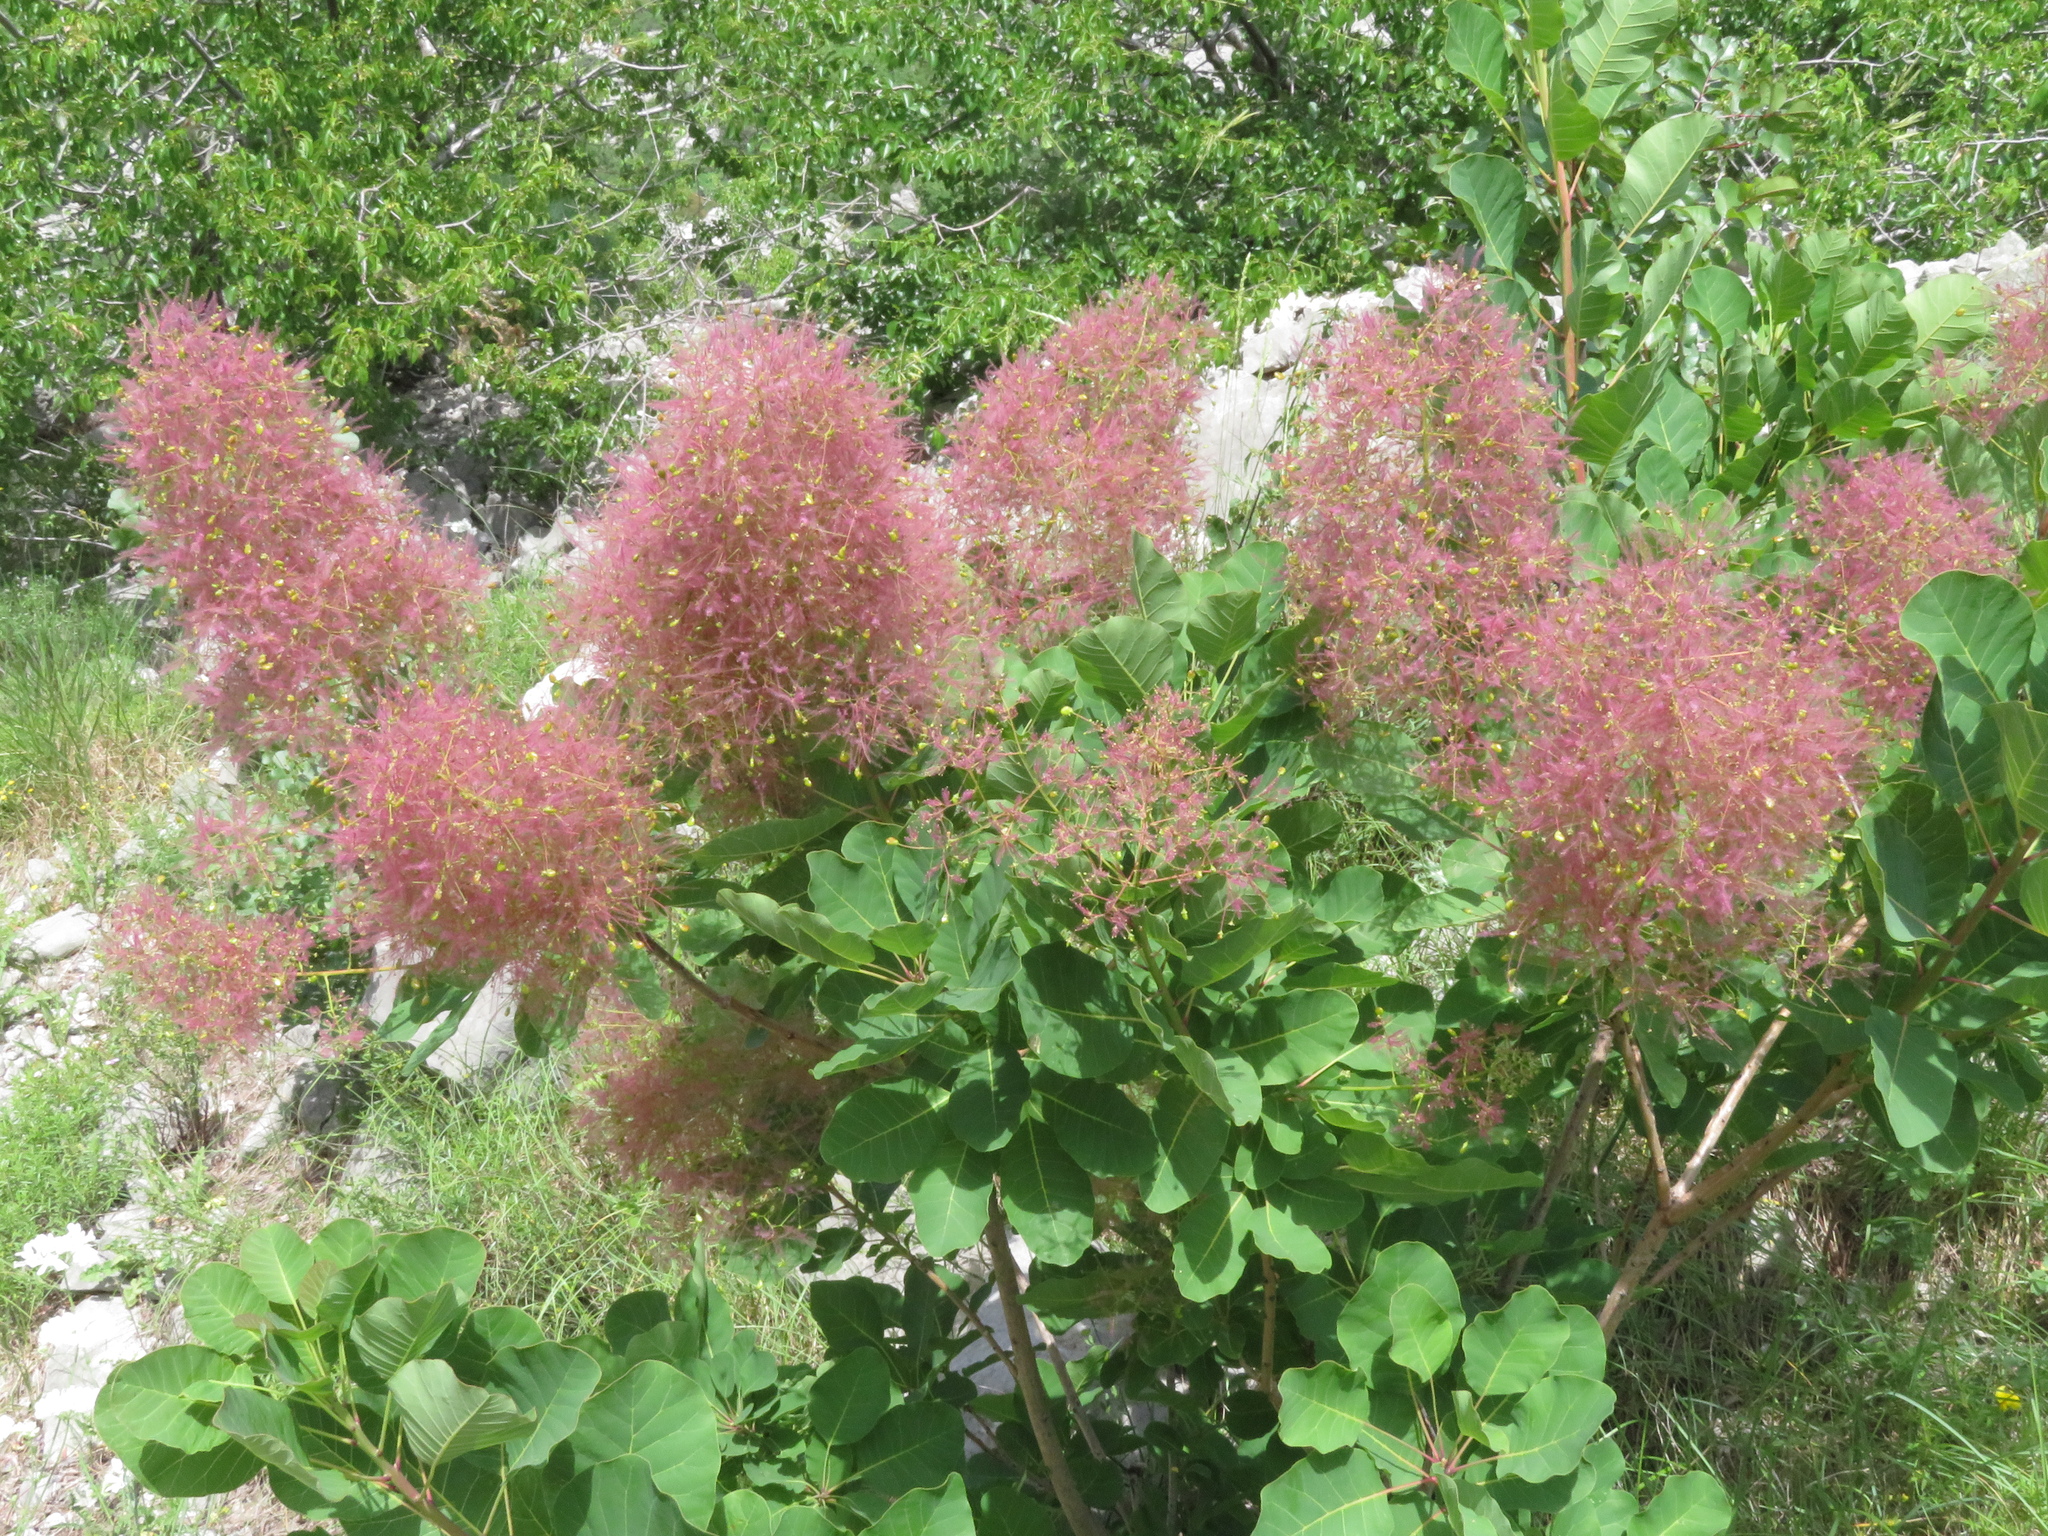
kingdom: Plantae
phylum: Tracheophyta
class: Magnoliopsida
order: Sapindales
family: Anacardiaceae
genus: Cotinus
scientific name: Cotinus coggygria
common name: Smoke-tree
